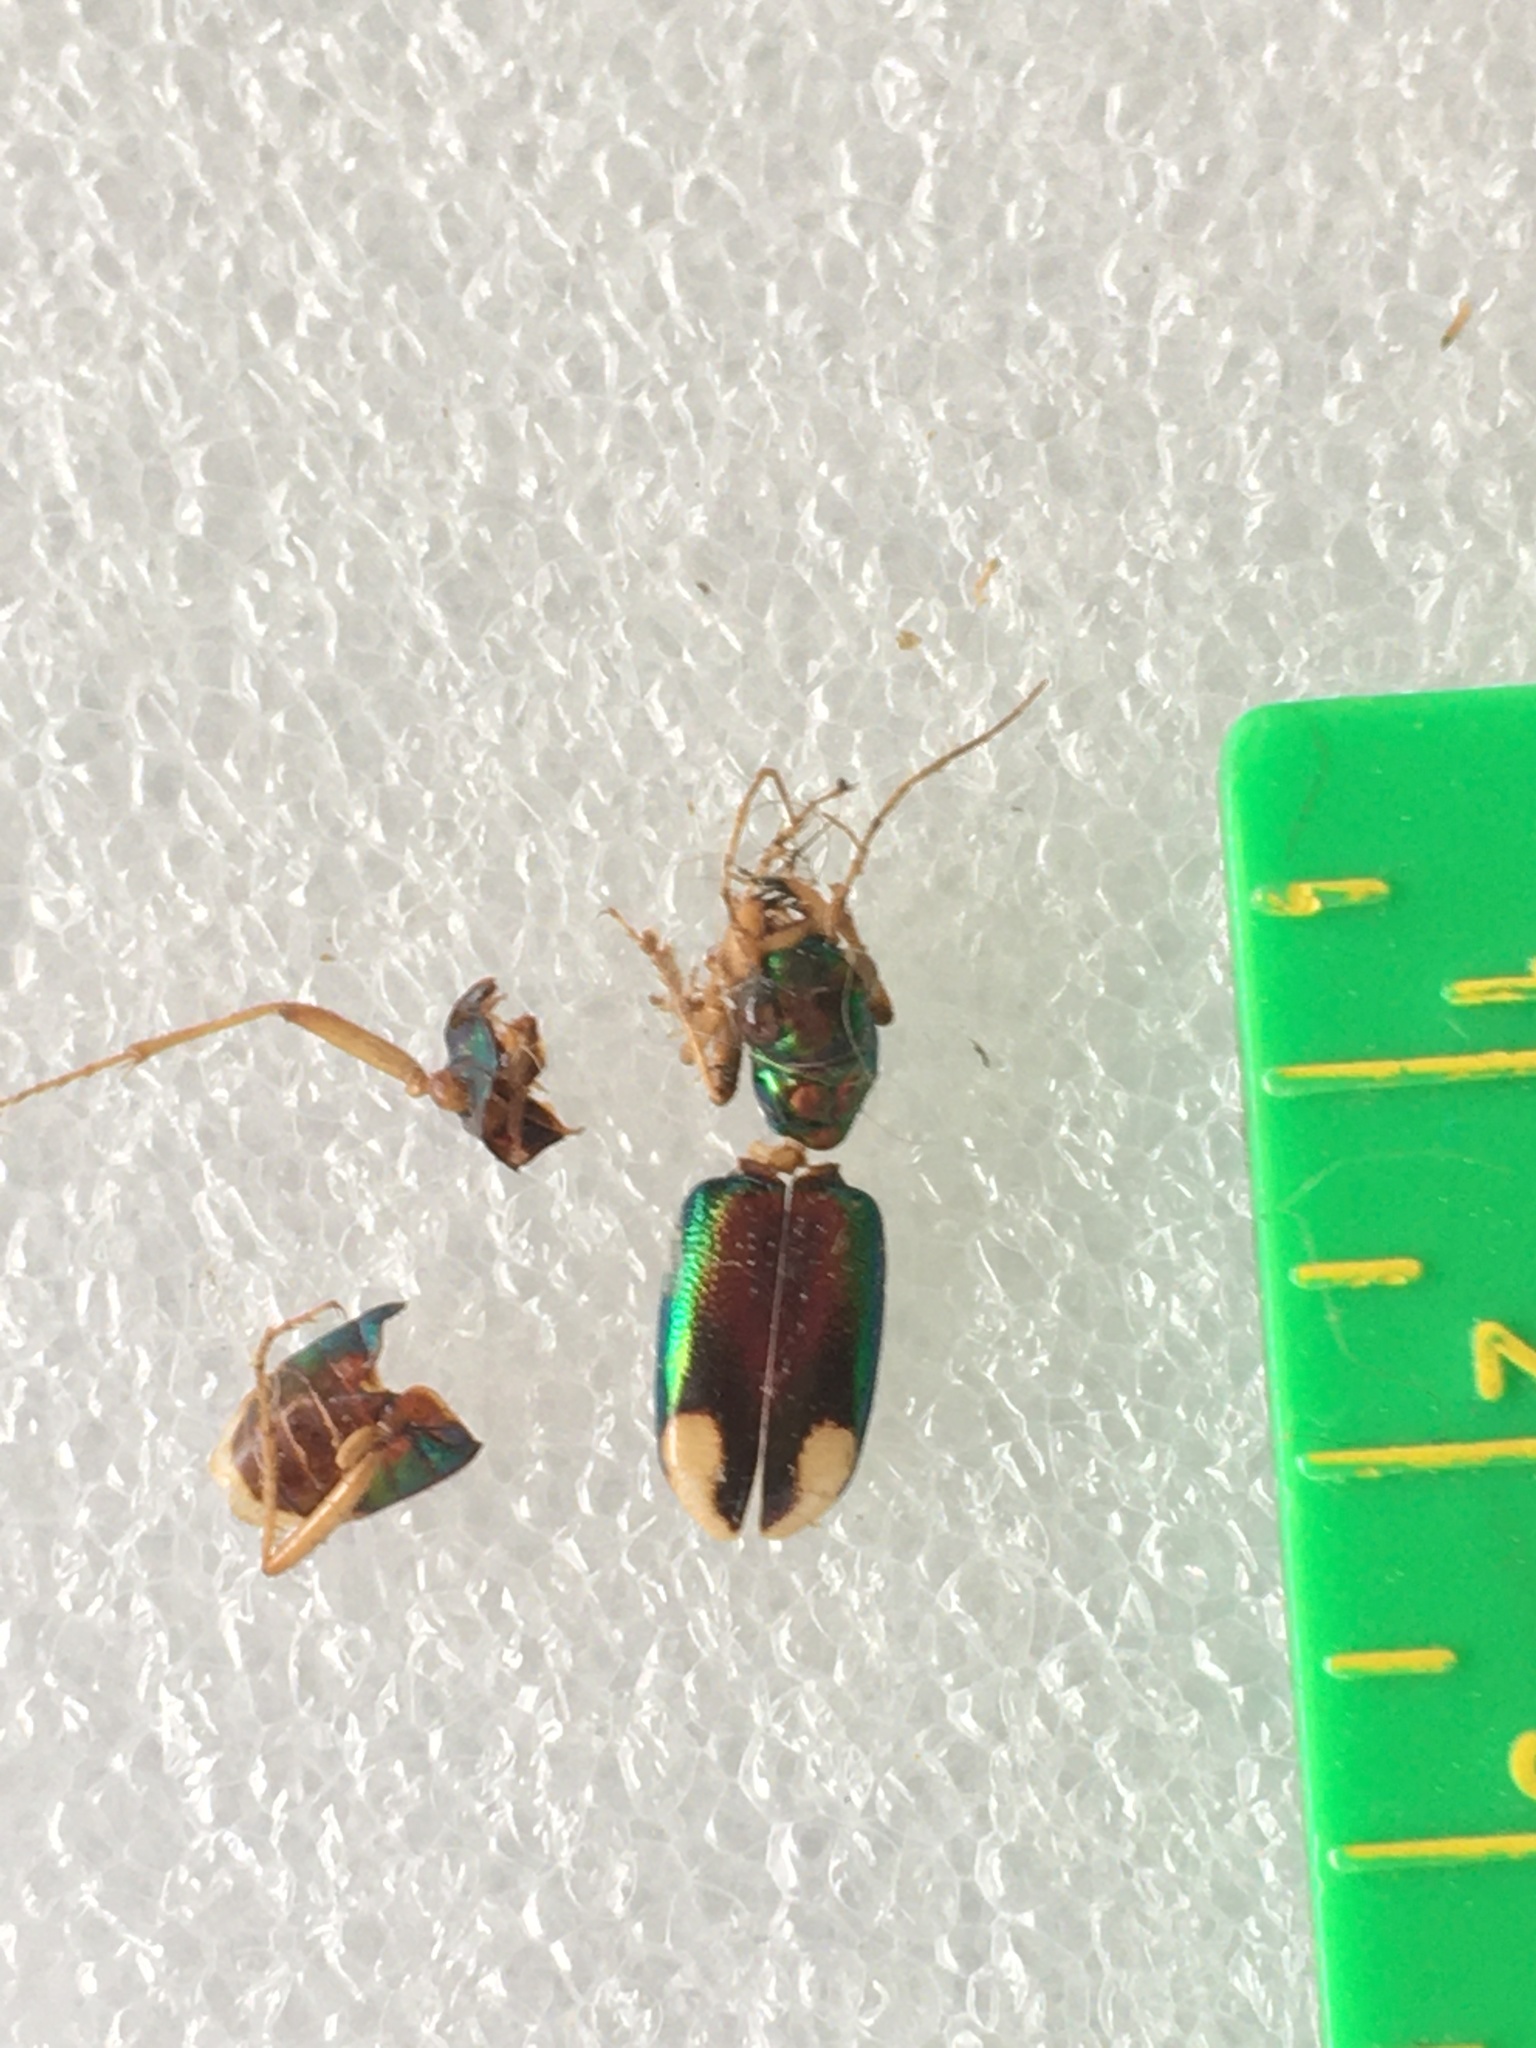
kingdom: Animalia
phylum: Arthropoda
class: Insecta
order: Coleoptera
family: Carabidae
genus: Tetracha
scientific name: Tetracha carolina
